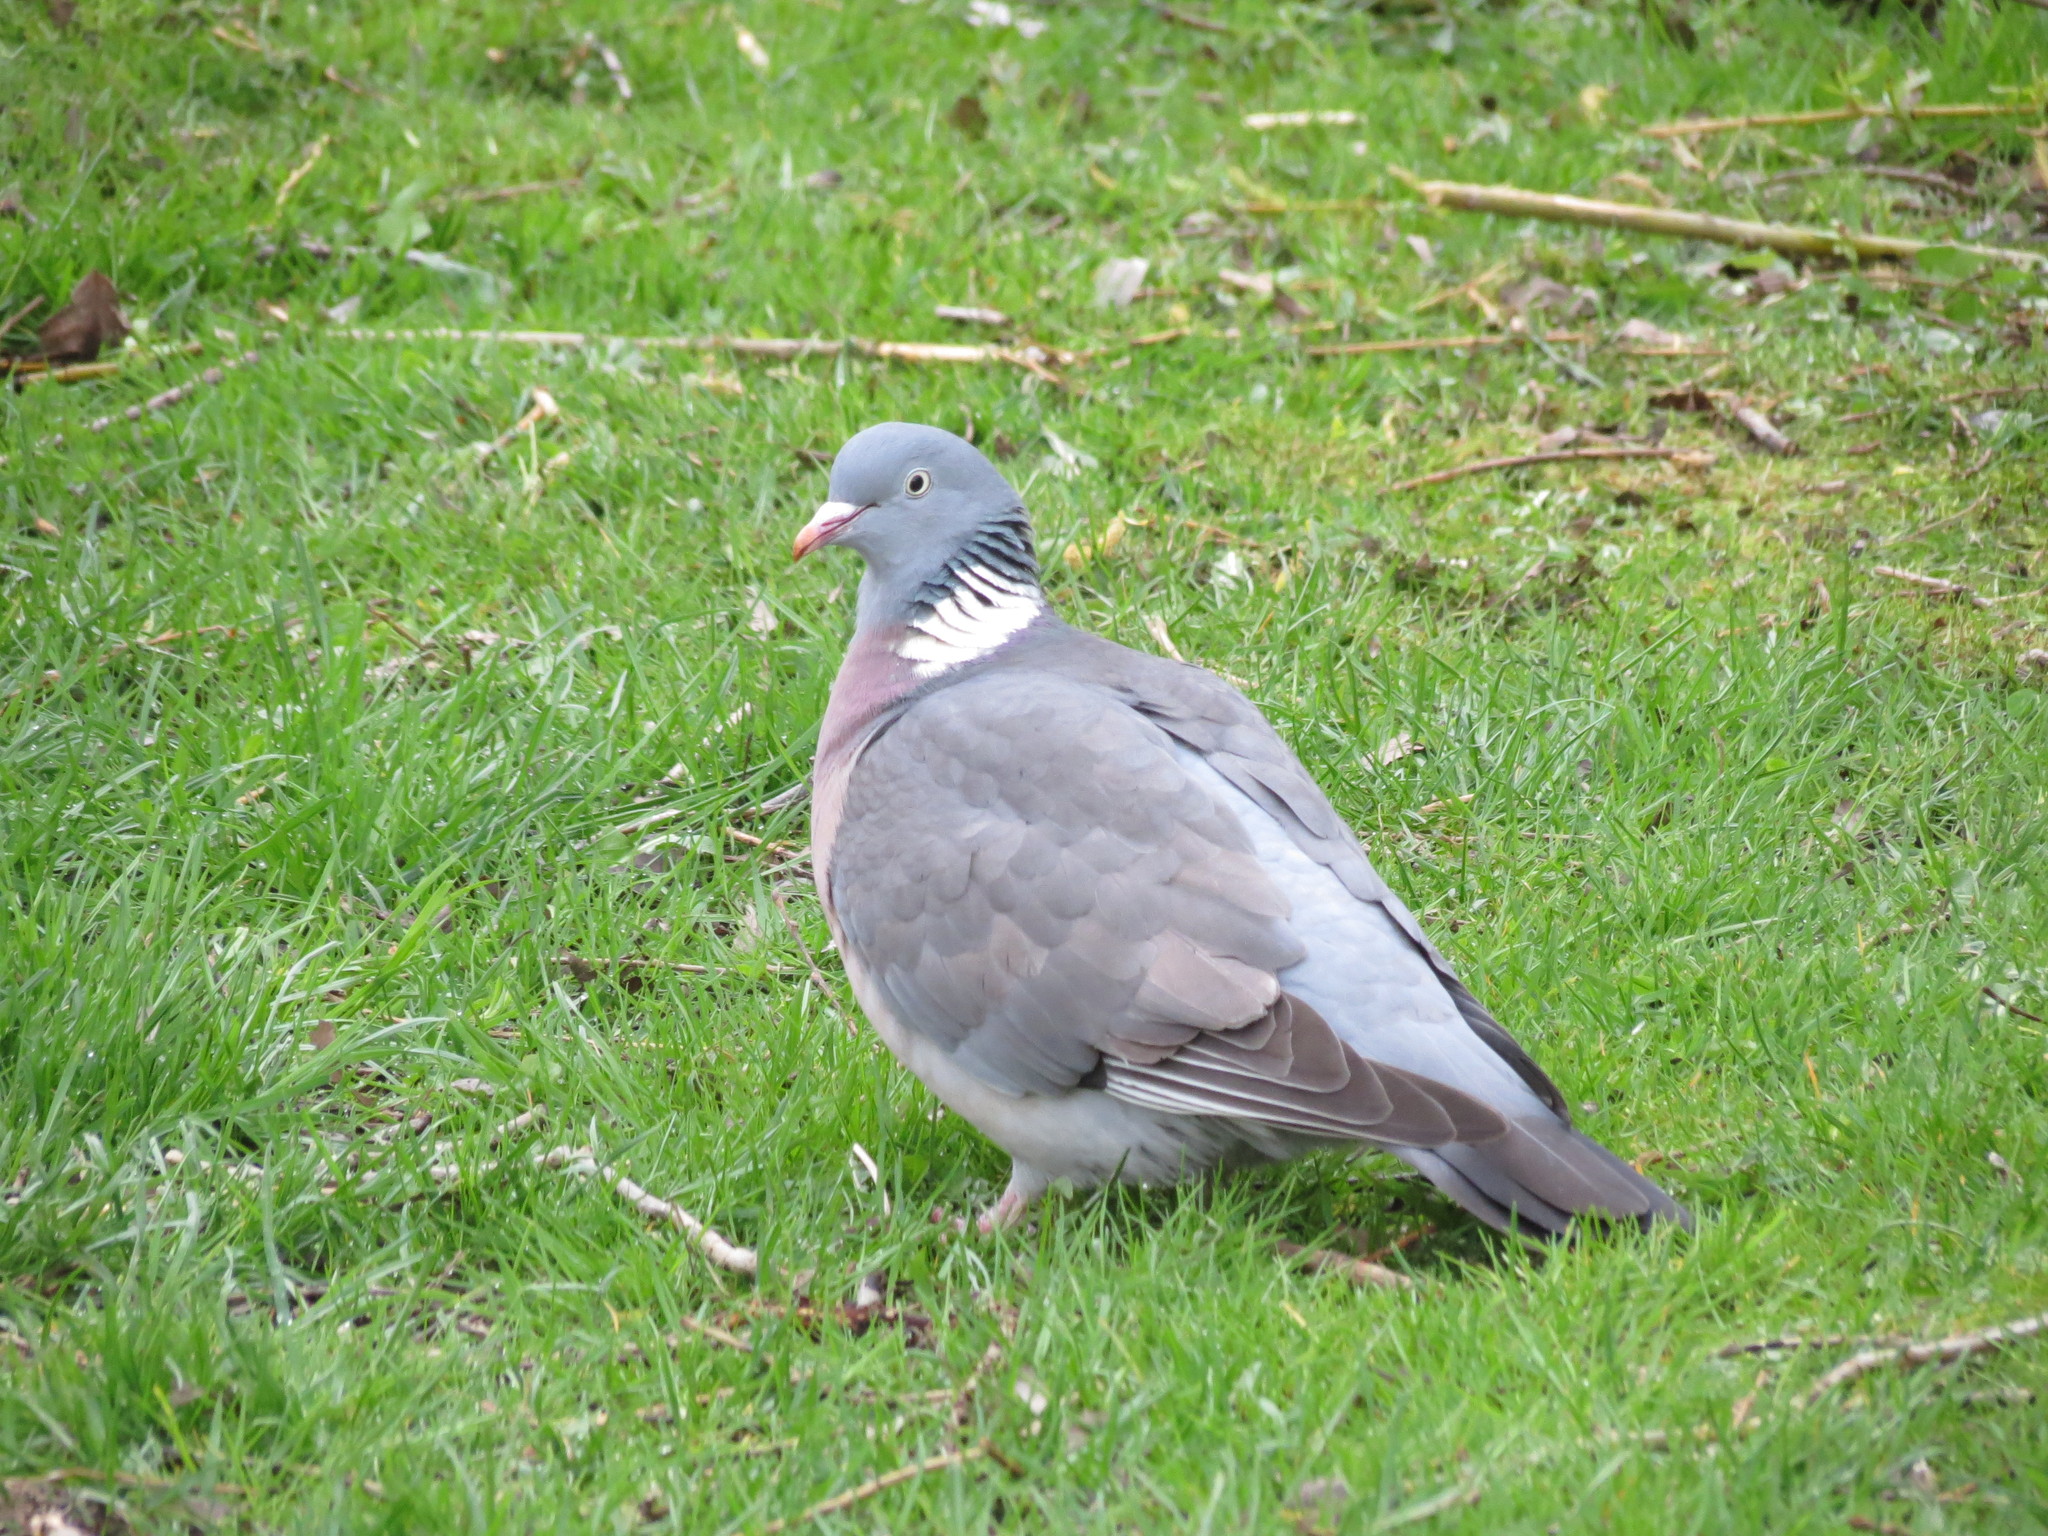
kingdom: Animalia
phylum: Chordata
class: Aves
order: Columbiformes
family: Columbidae
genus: Columba
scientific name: Columba palumbus
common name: Common wood pigeon
